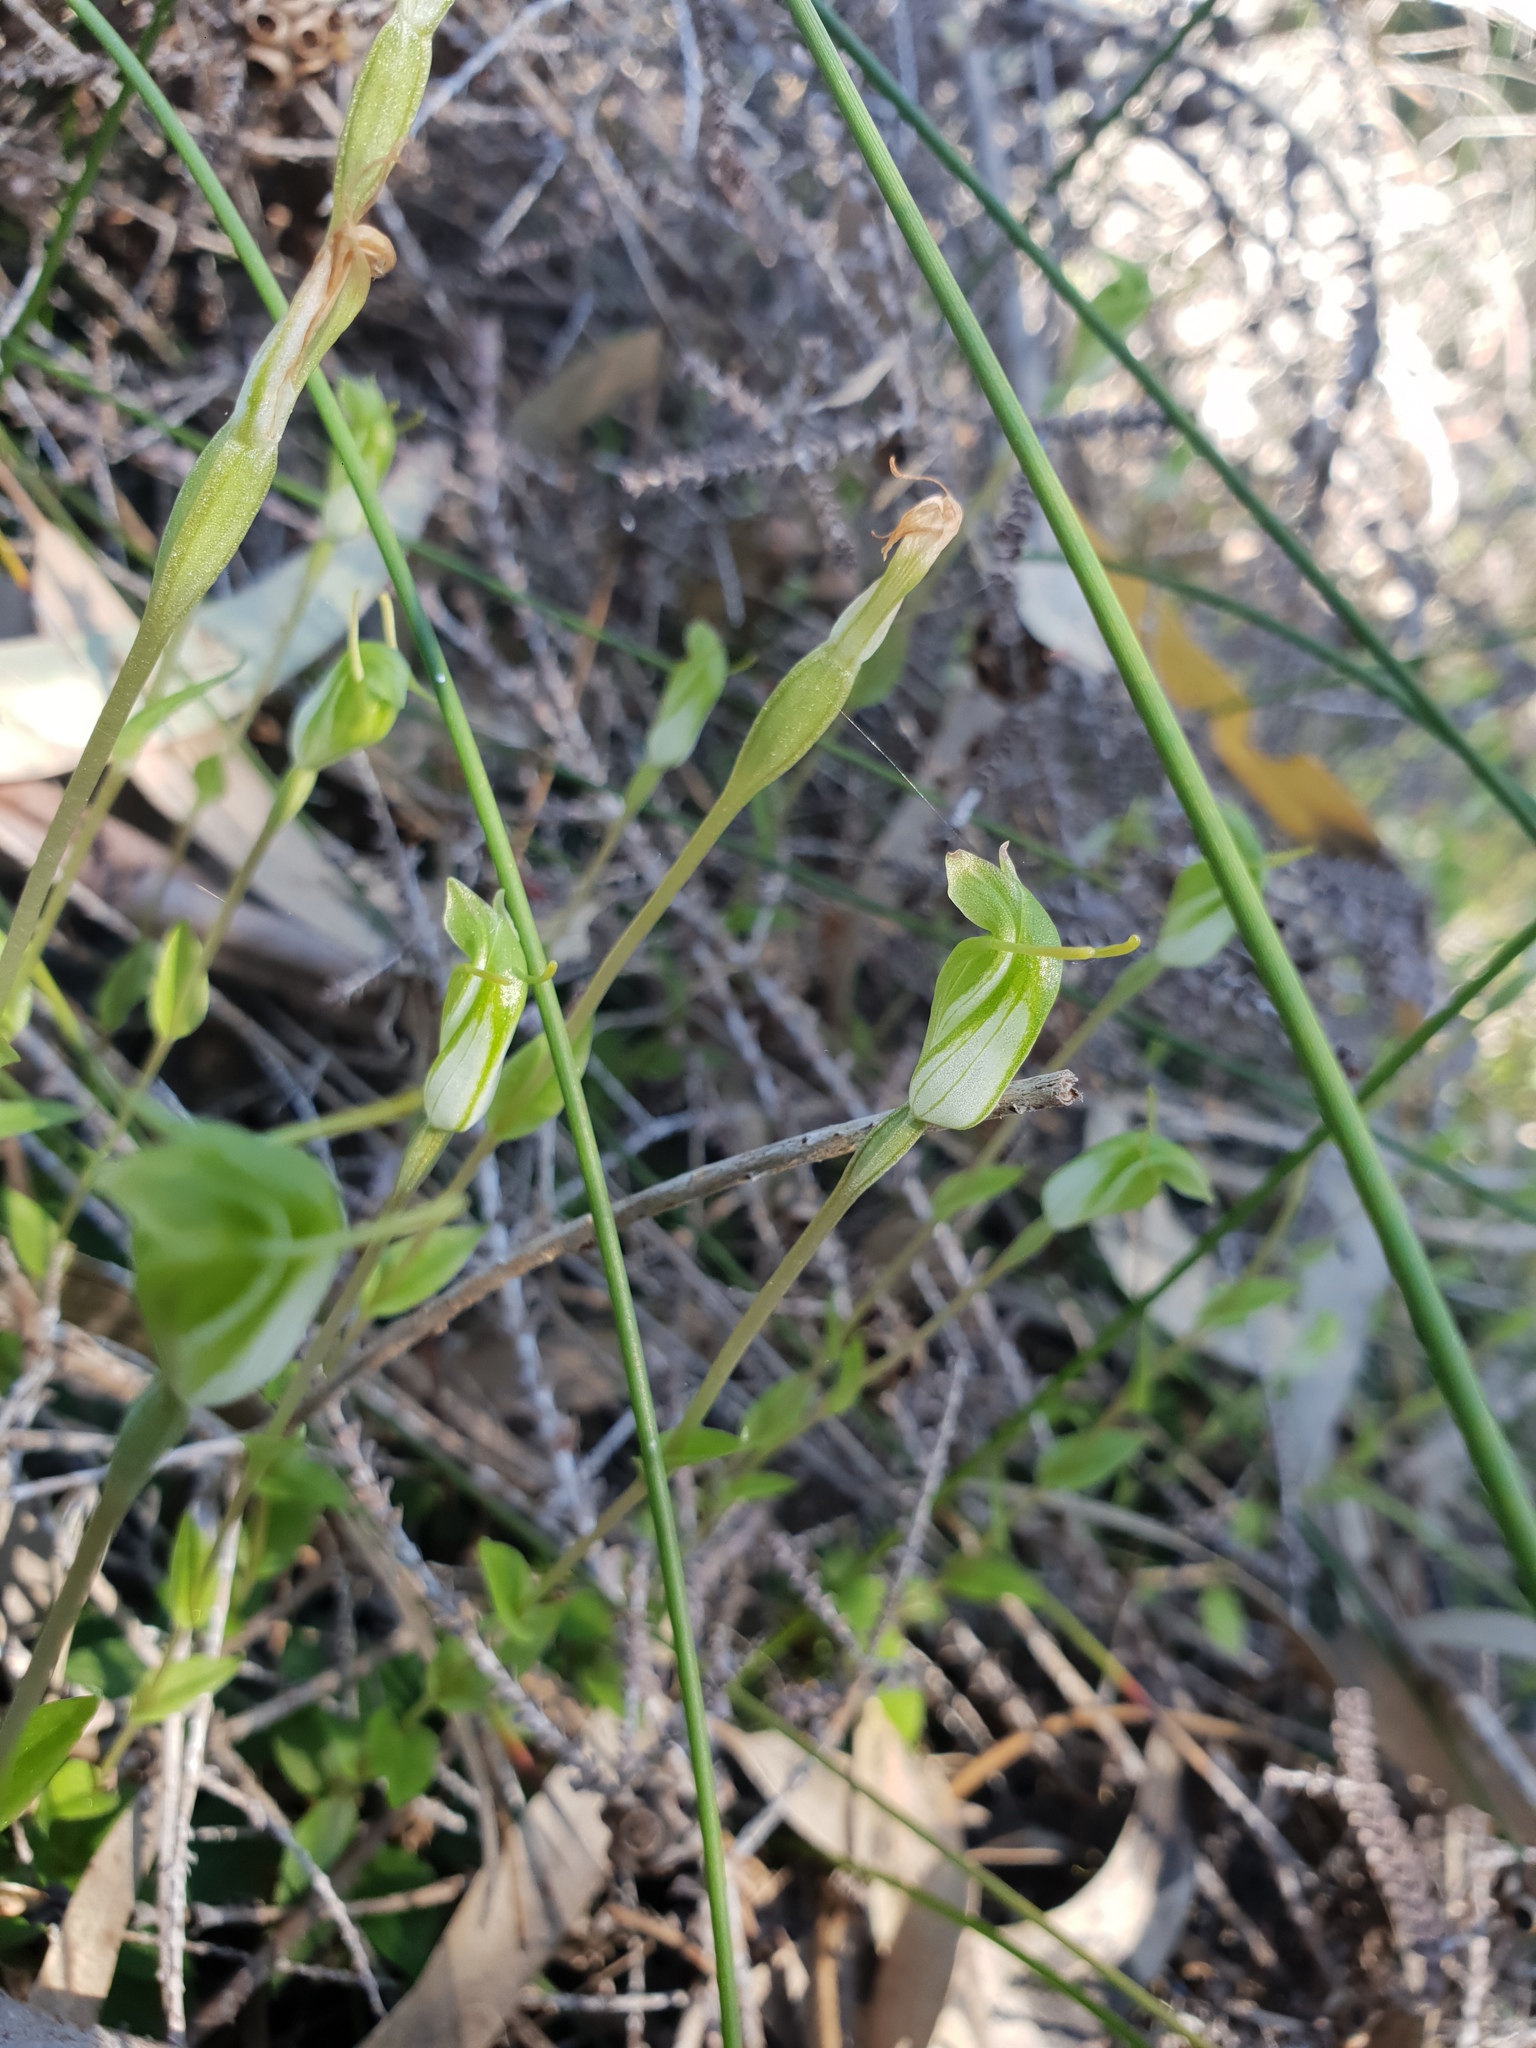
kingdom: Plantae
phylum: Tracheophyta
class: Liliopsida
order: Asparagales
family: Orchidaceae
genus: Pterostylis
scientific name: Pterostylis ectypha
